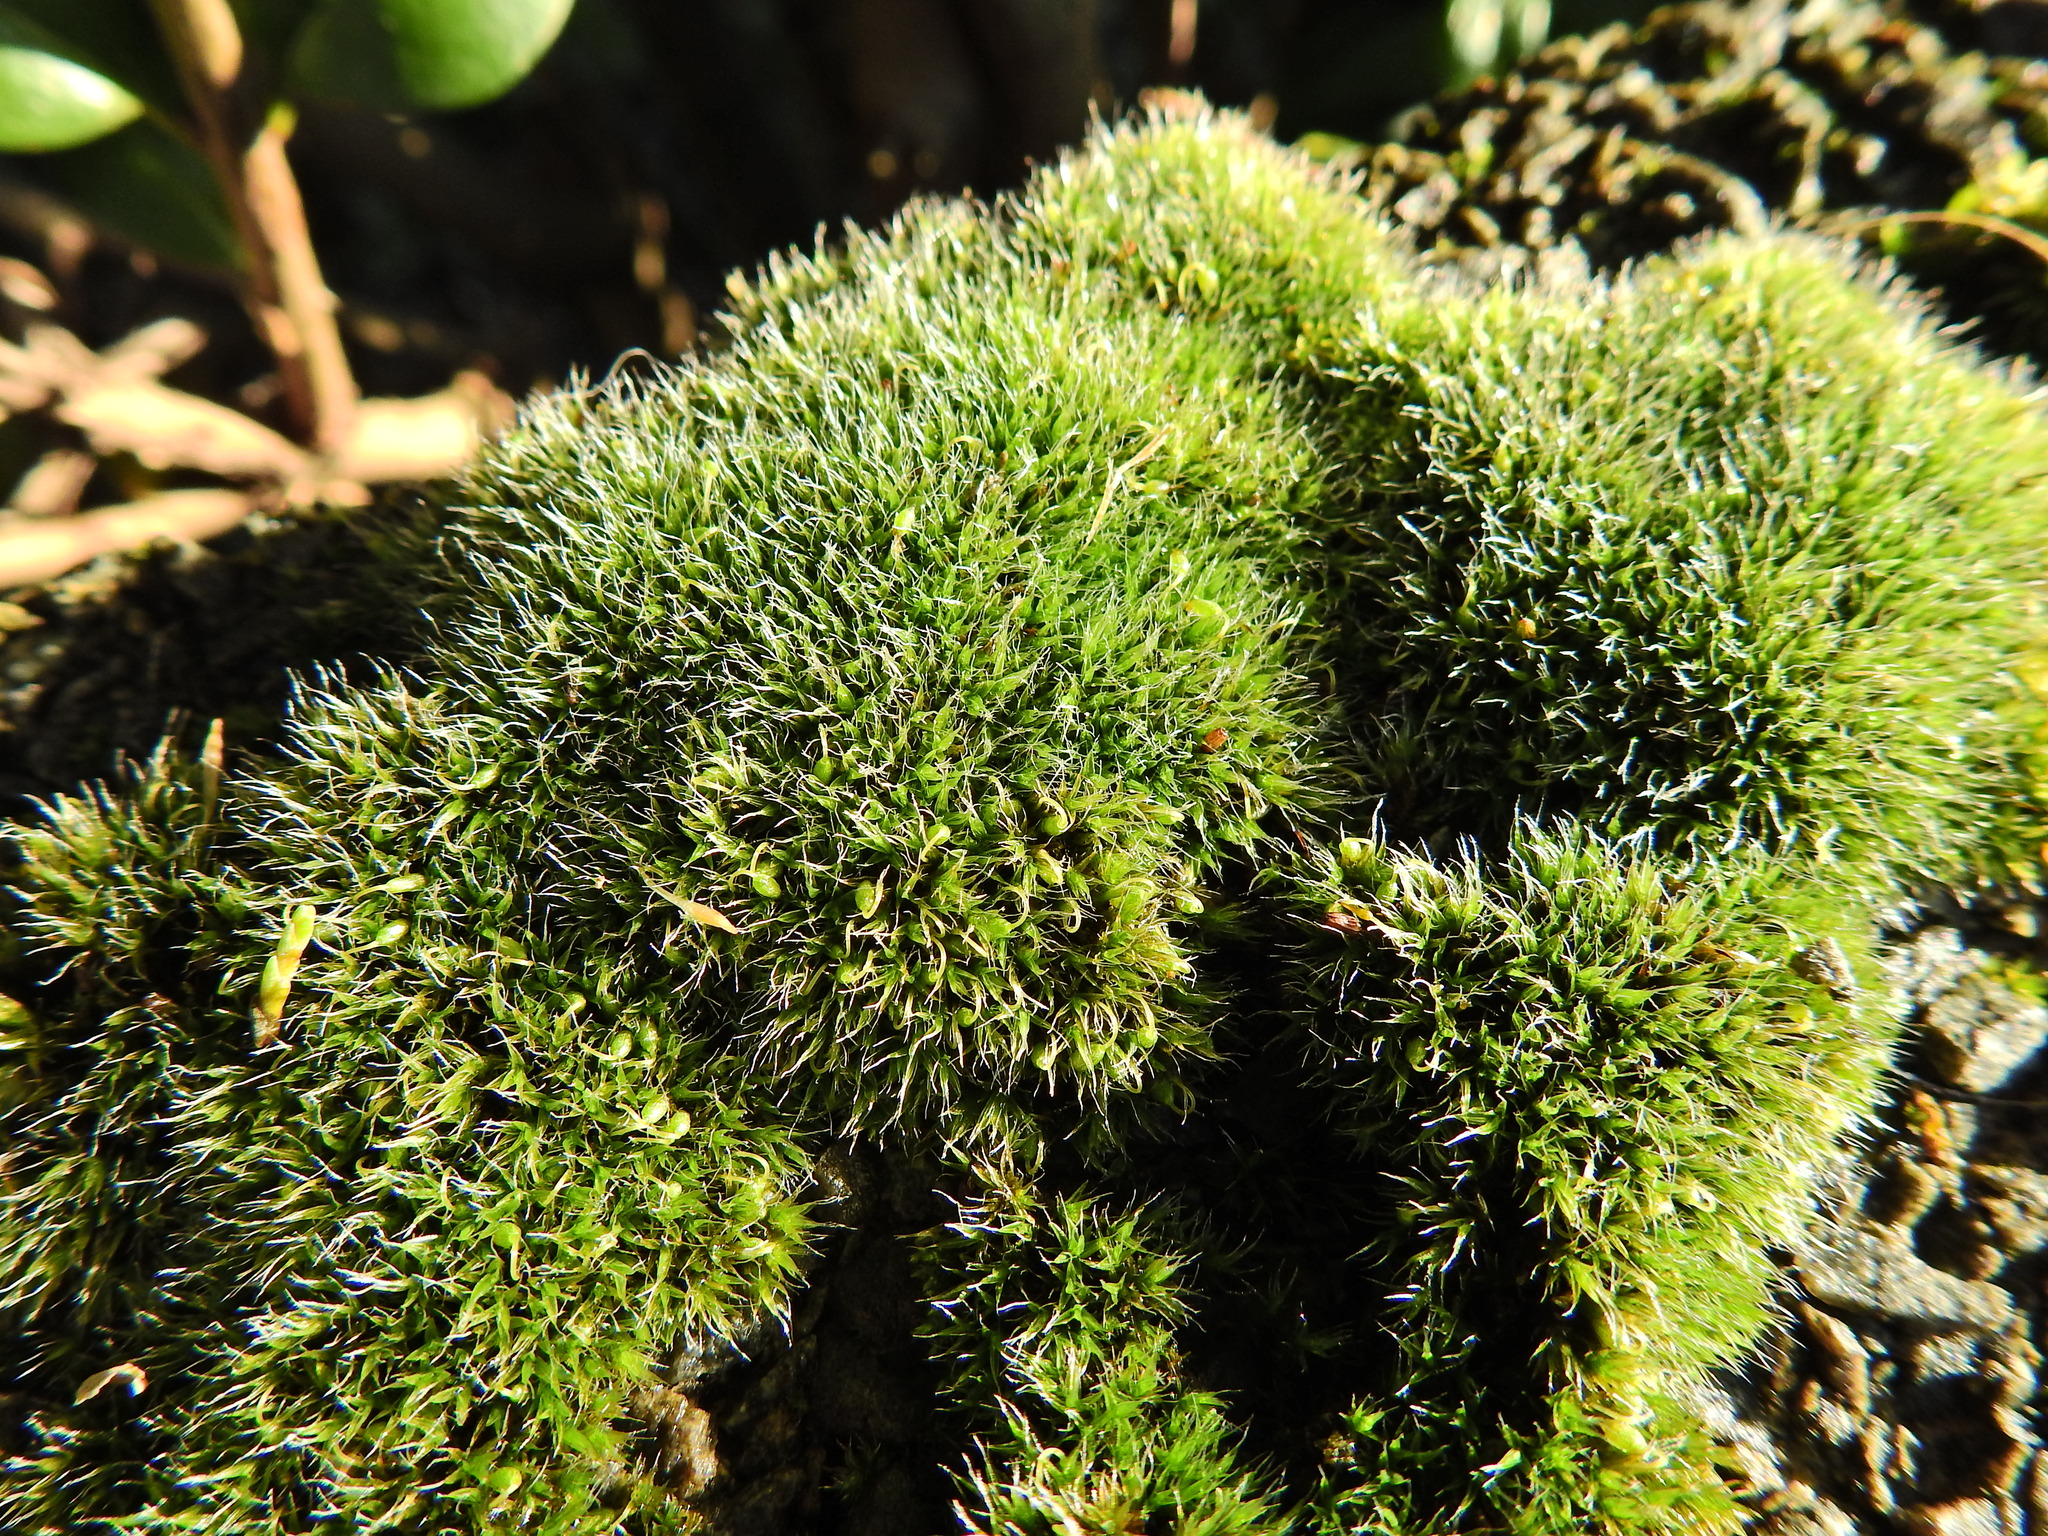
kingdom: Plantae
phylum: Bryophyta
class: Bryopsida
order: Grimmiales
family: Grimmiaceae
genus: Grimmia
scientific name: Grimmia pulvinata
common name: Grey-cushioned grimmia
